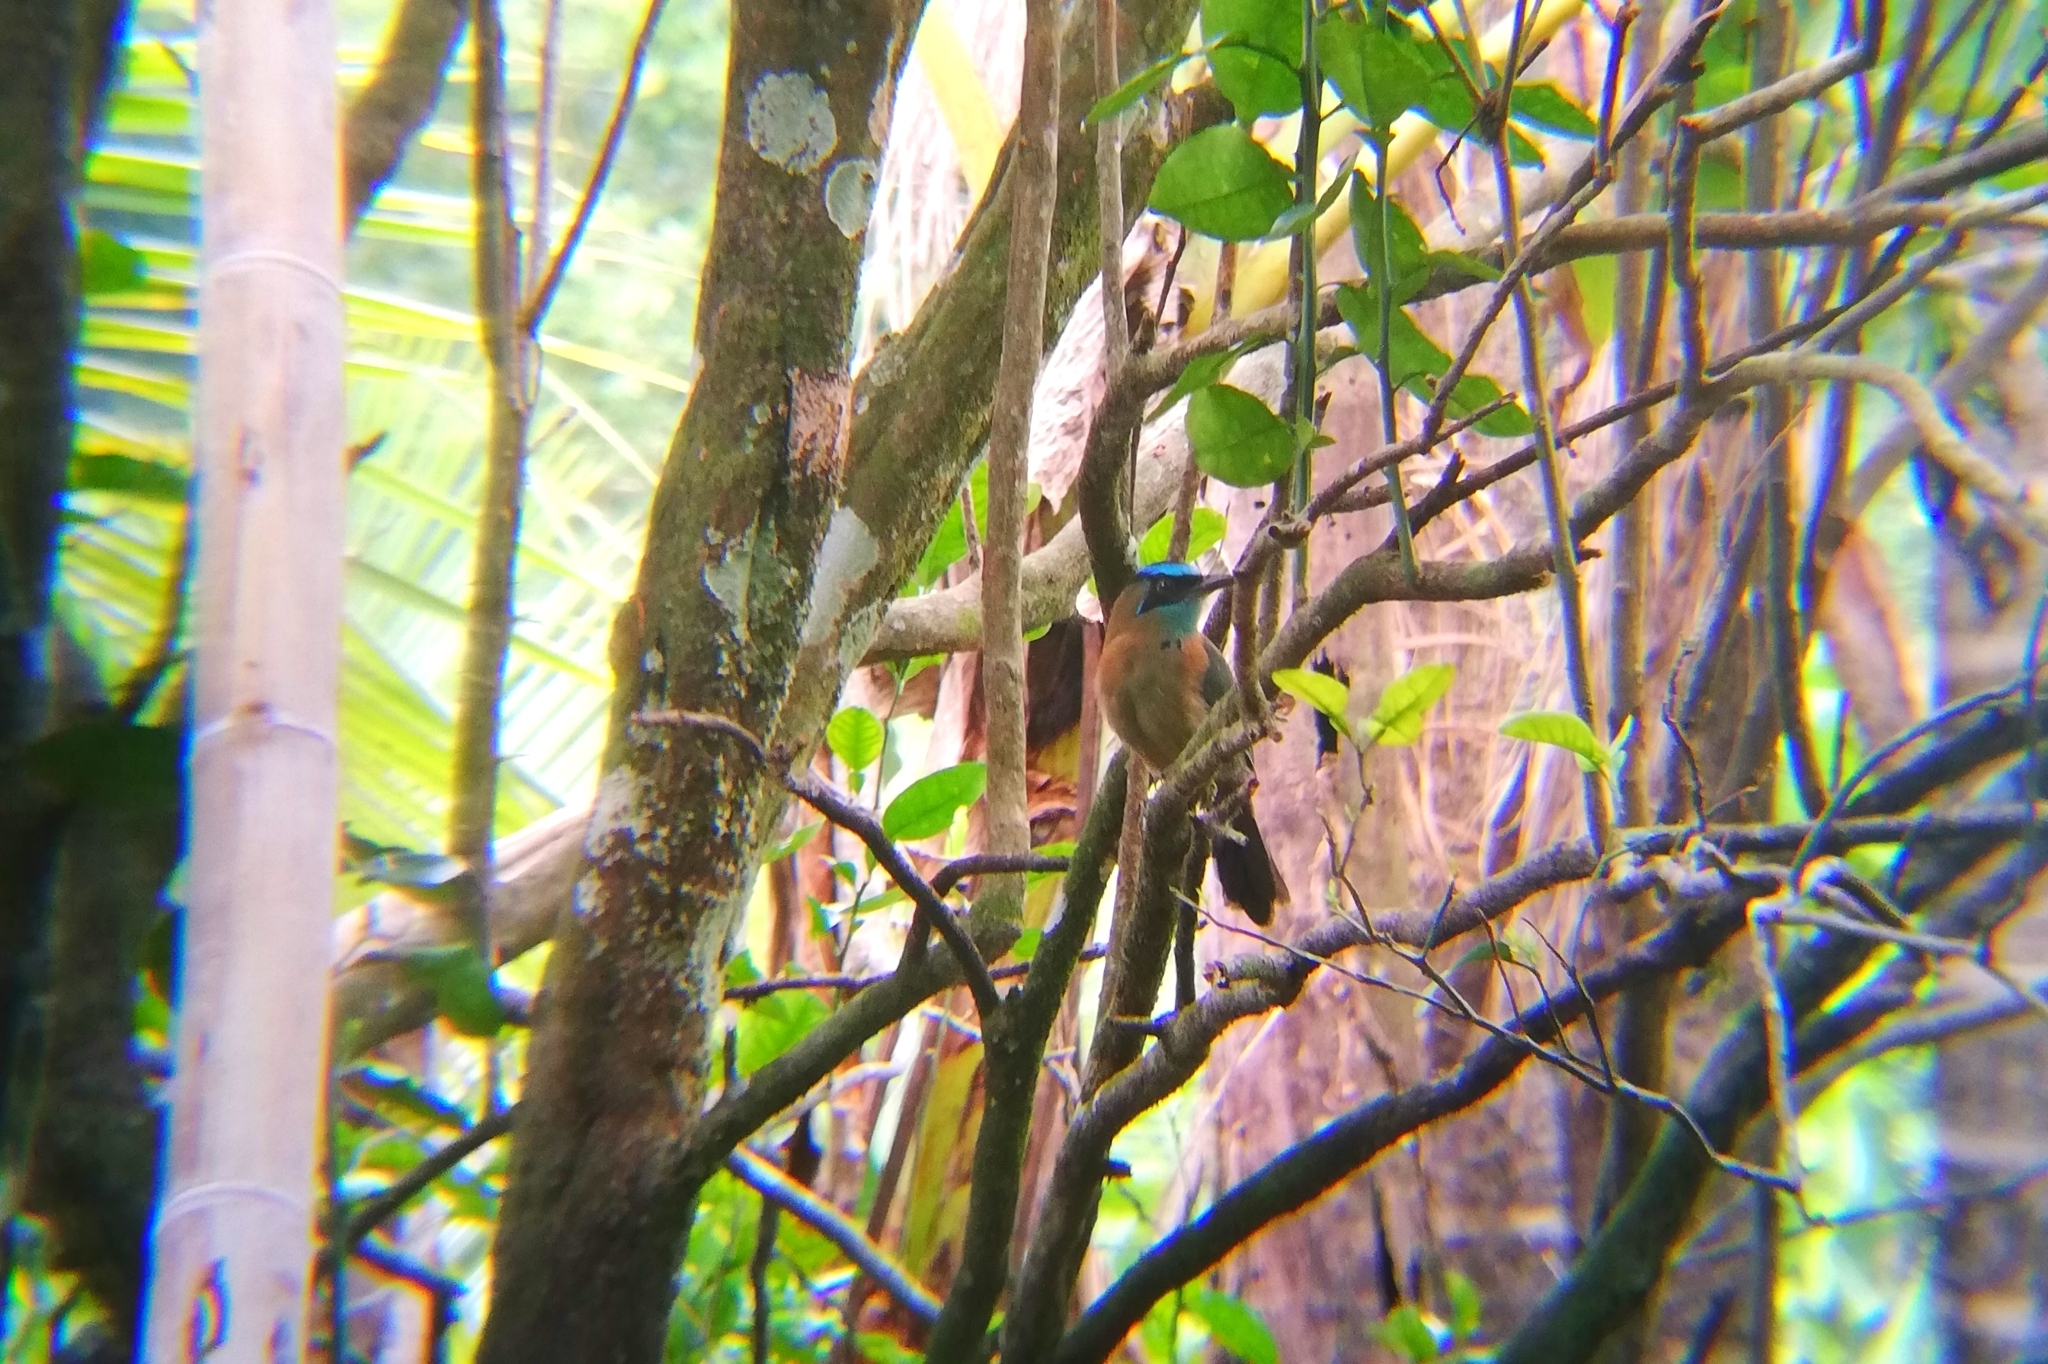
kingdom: Animalia
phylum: Chordata
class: Aves
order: Coraciiformes
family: Momotidae
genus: Momotus
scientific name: Momotus lessonii
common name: Lesson's motmot
